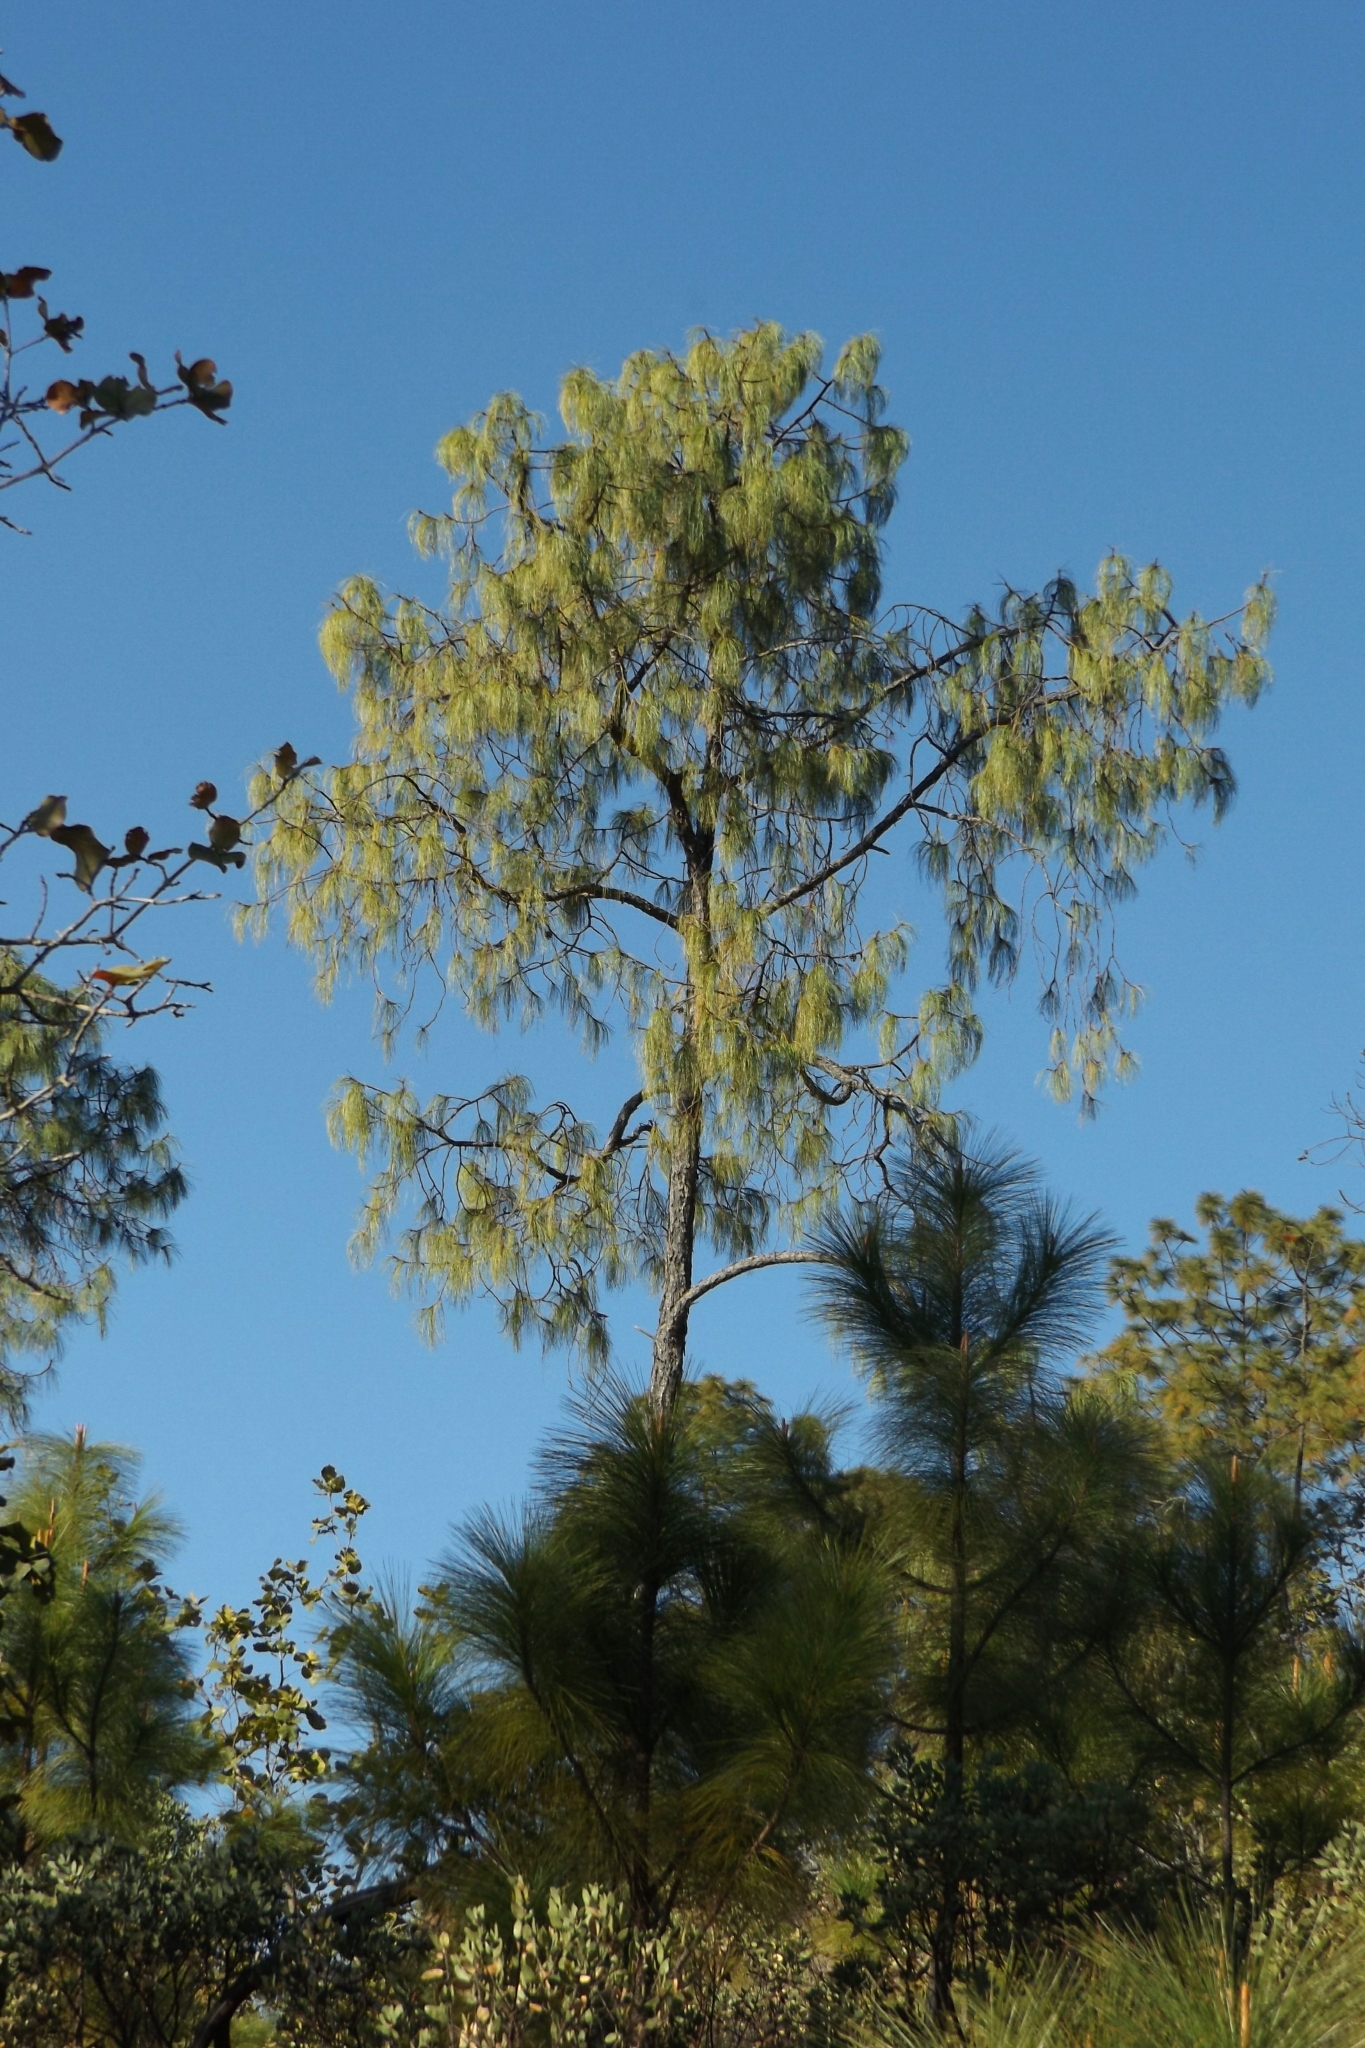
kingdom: Plantae
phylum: Tracheophyta
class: Pinopsida
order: Pinales
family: Pinaceae
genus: Pinus
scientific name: Pinus luzmariae
